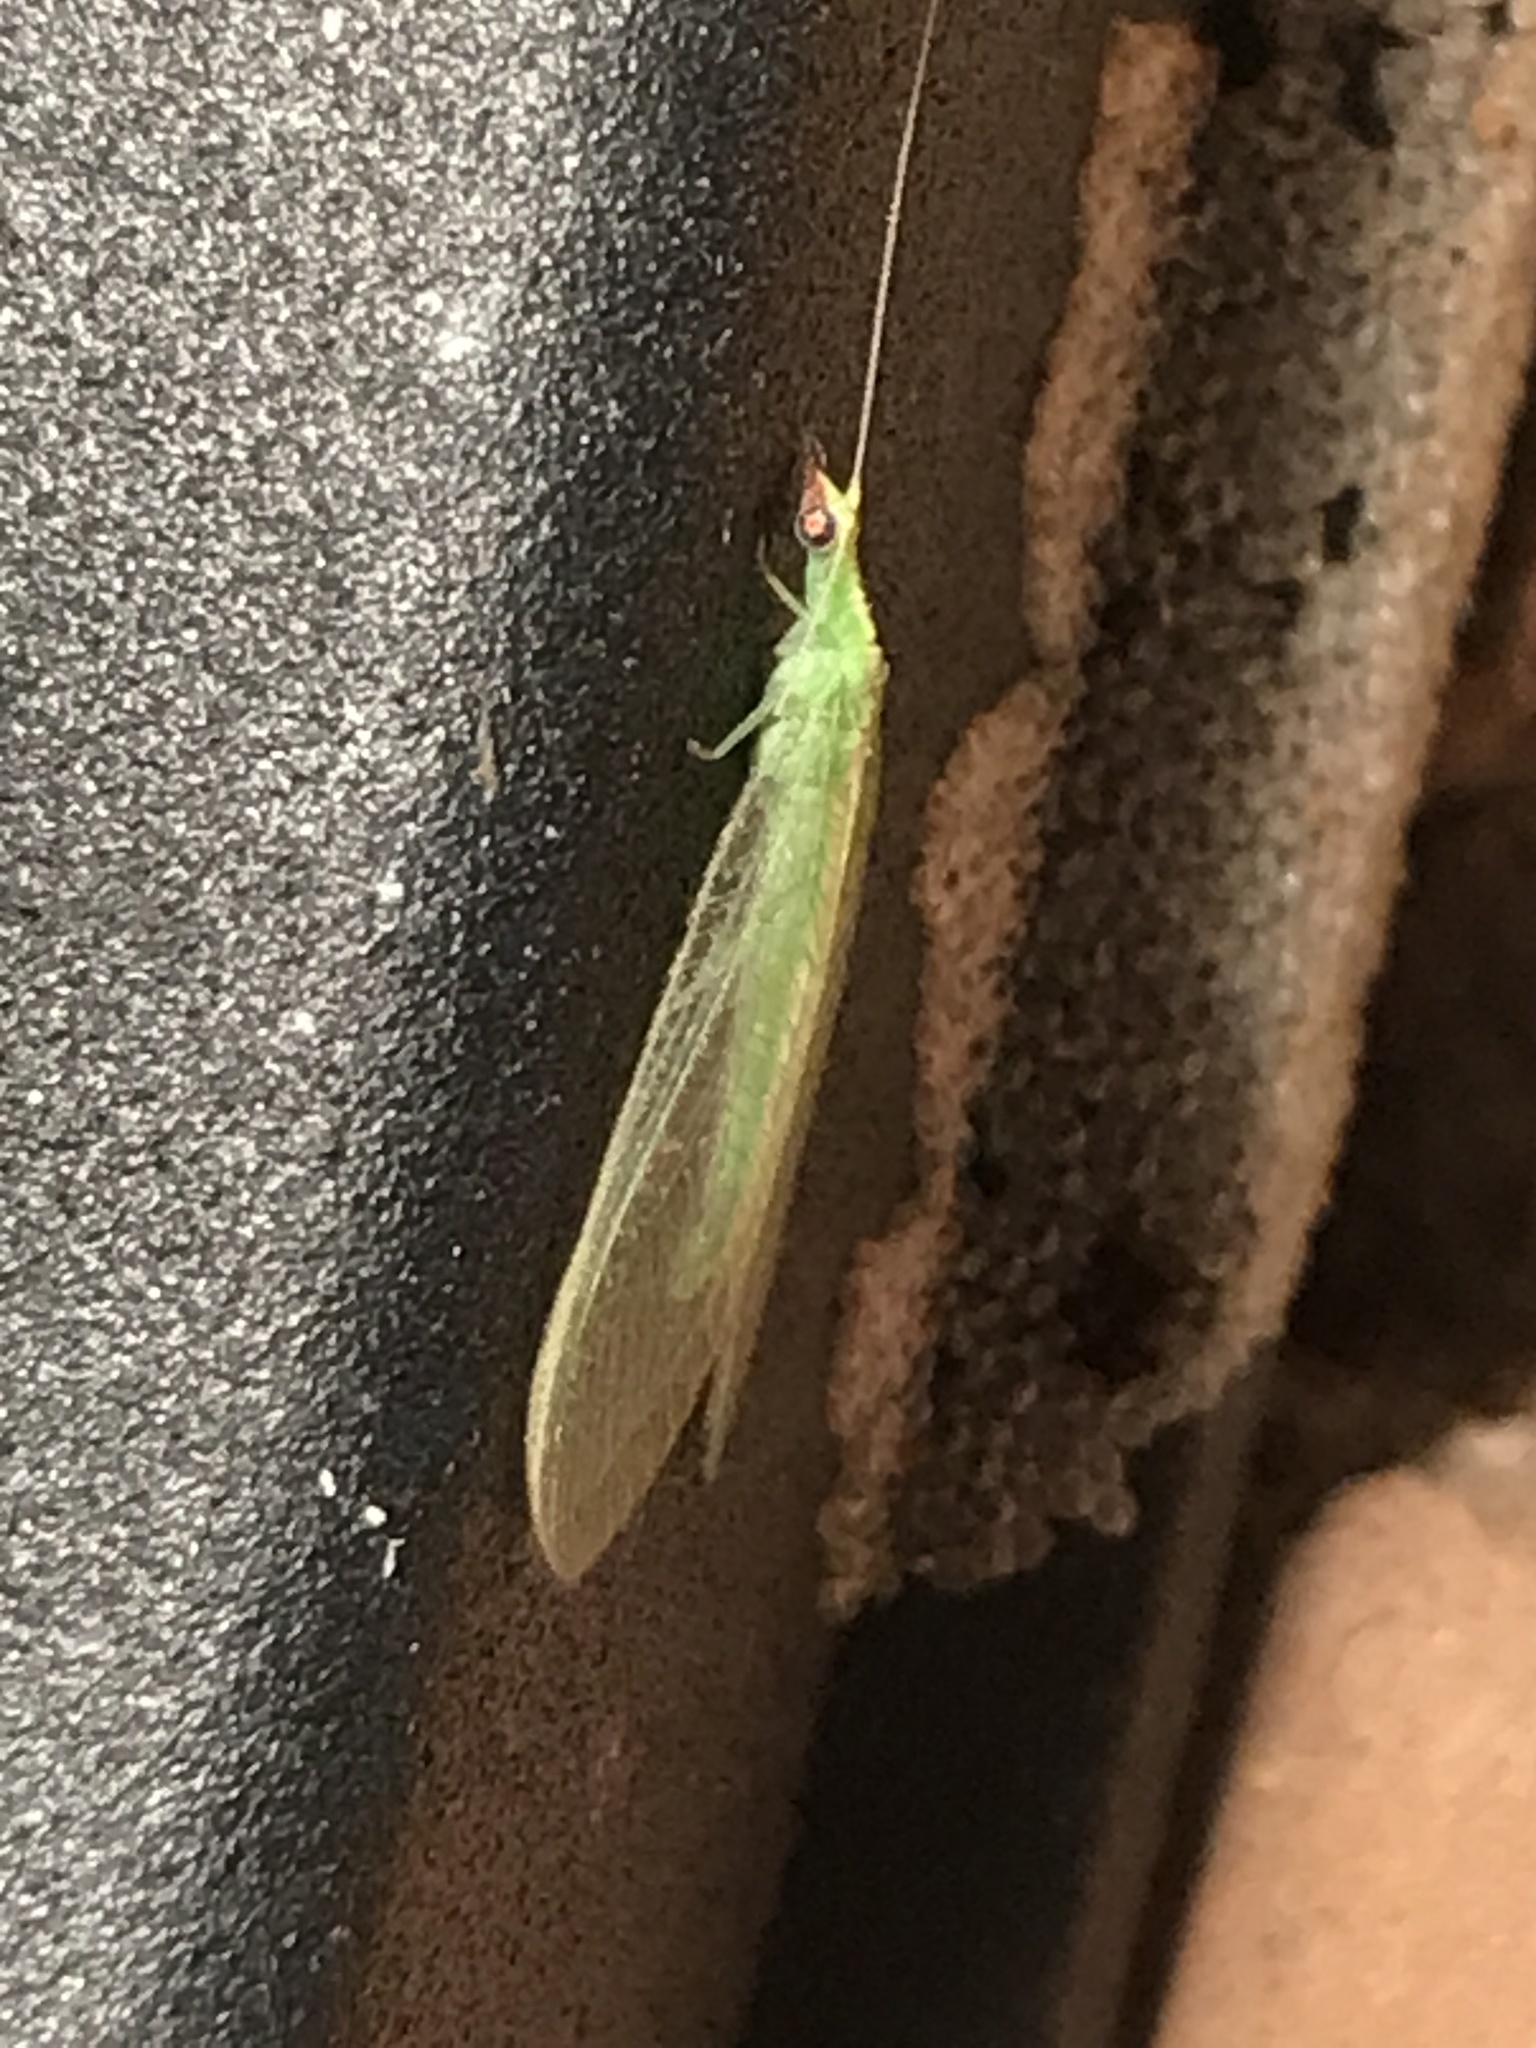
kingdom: Animalia
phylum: Arthropoda
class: Insecta
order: Neuroptera
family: Chrysopidae
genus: Chrysoperla
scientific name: Chrysoperla
